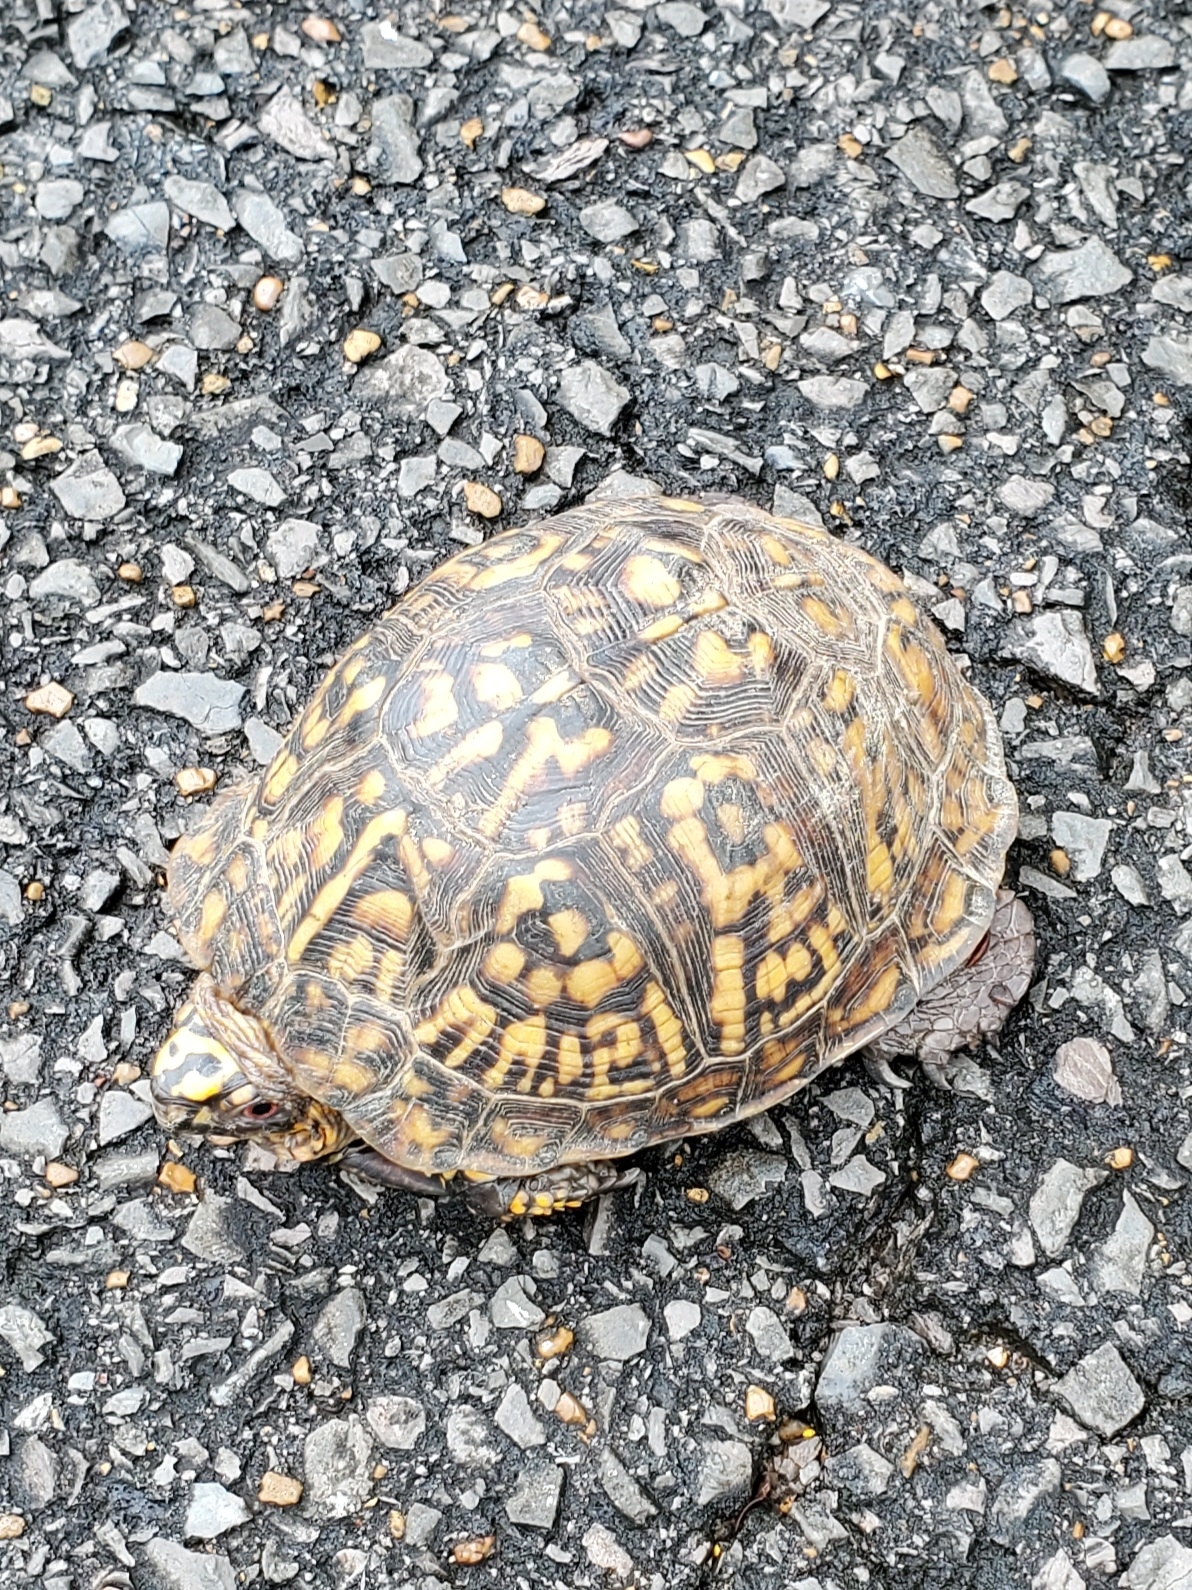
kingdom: Animalia
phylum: Chordata
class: Testudines
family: Emydidae
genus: Terrapene
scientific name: Terrapene carolina
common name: Common box turtle
